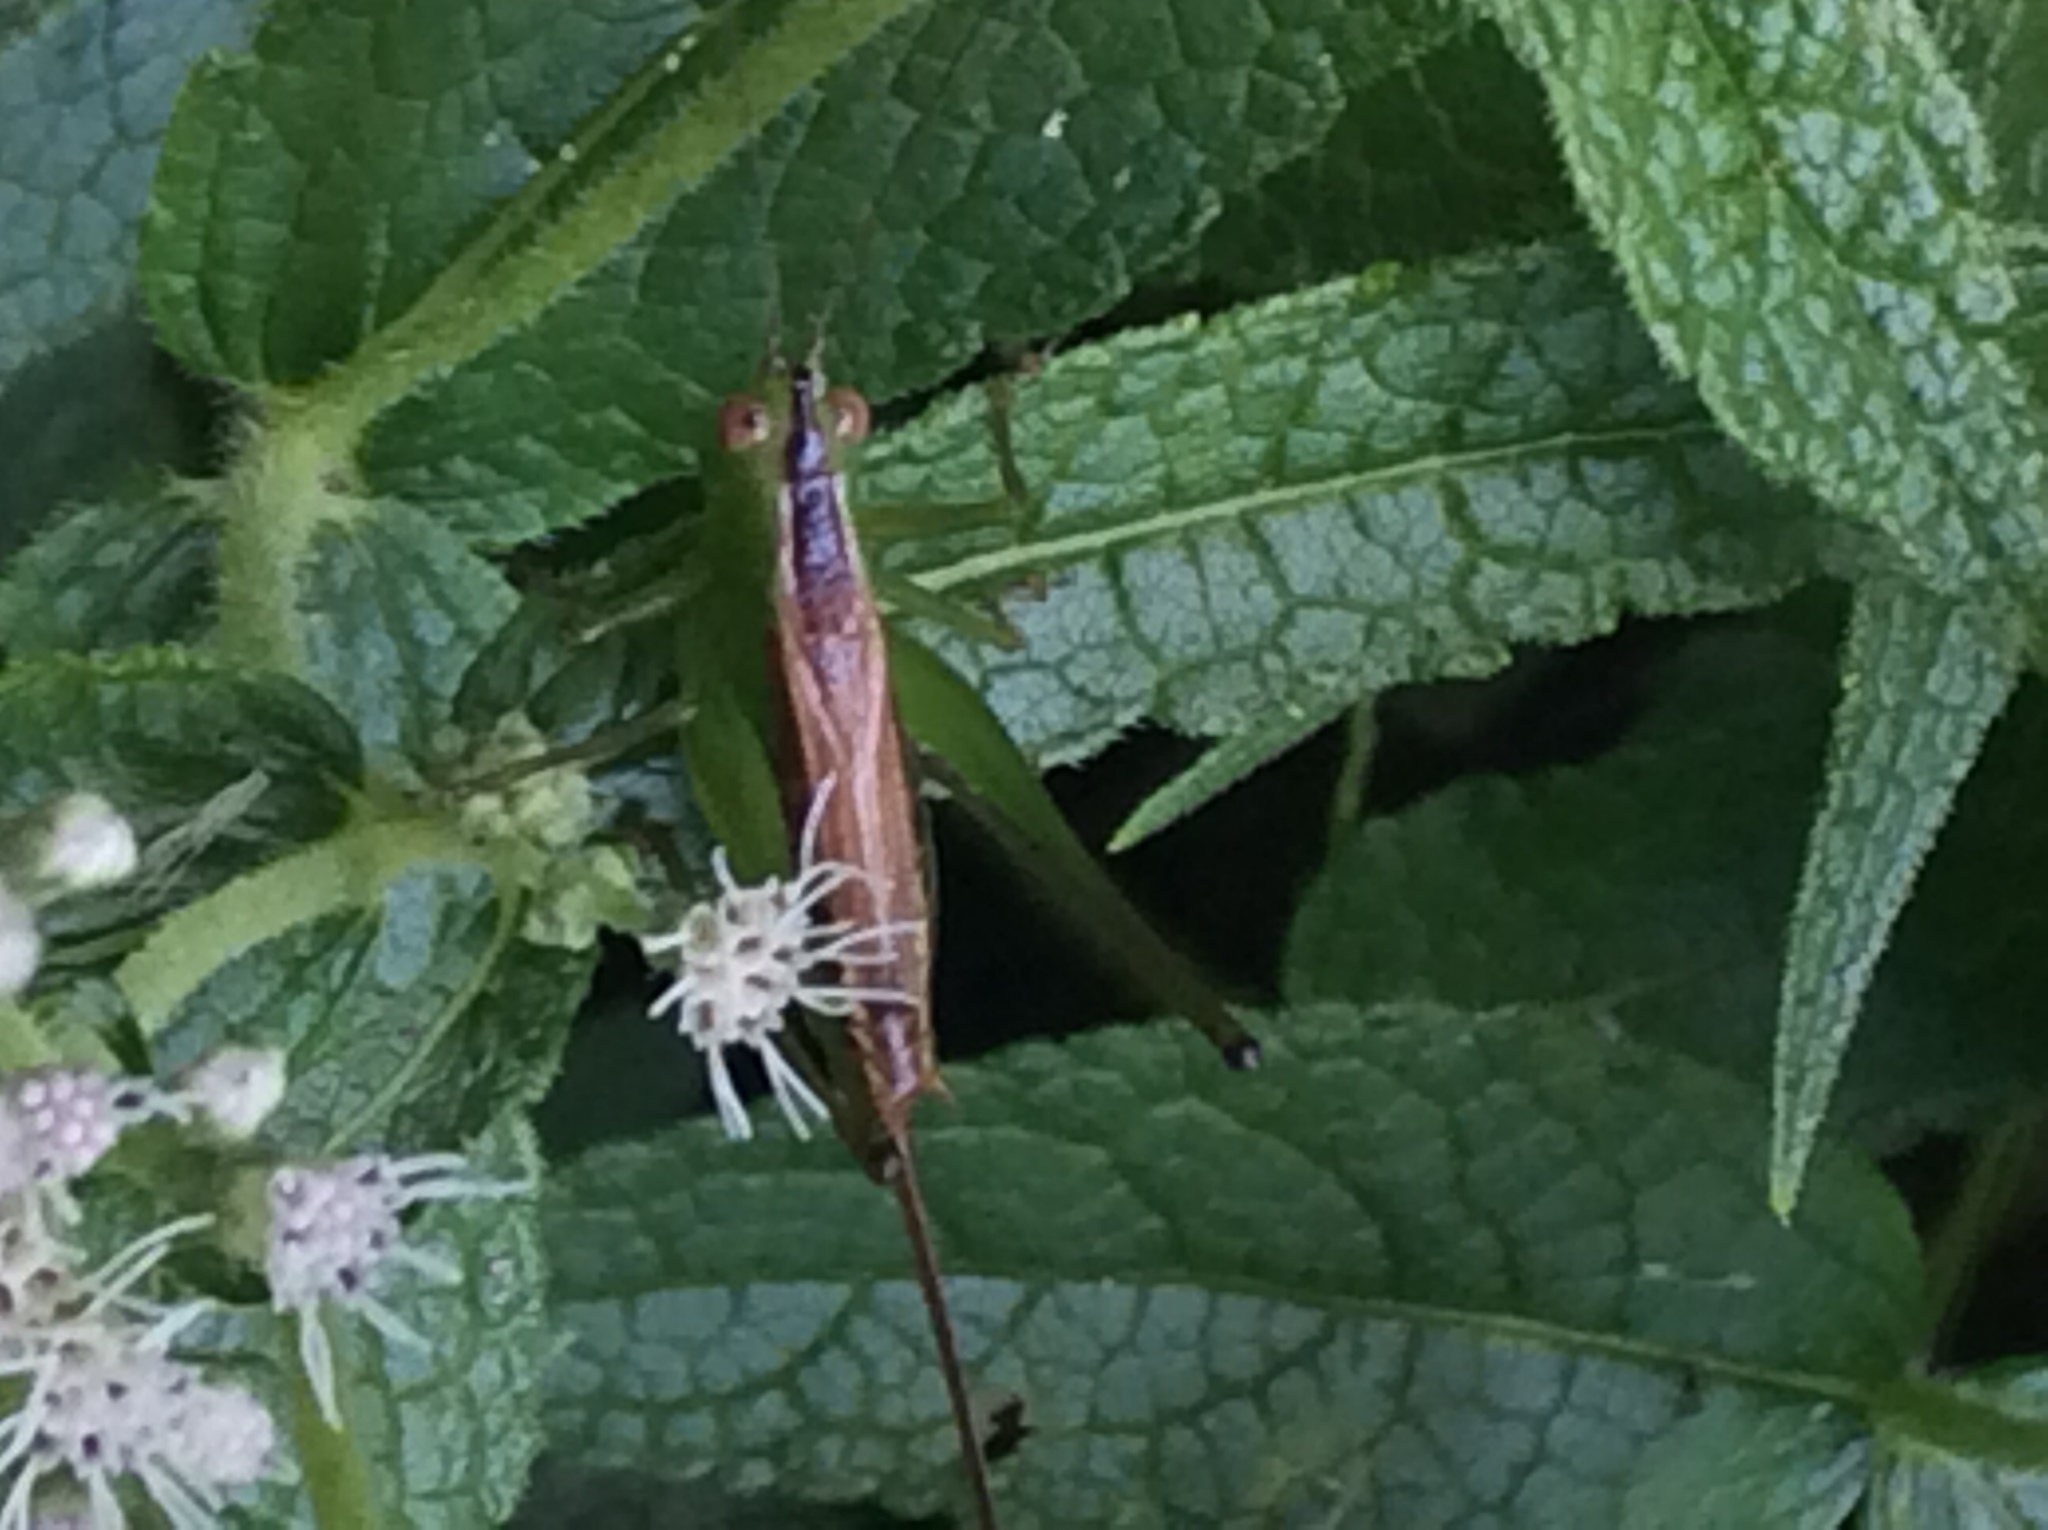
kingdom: Animalia
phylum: Arthropoda
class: Insecta
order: Orthoptera
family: Tettigoniidae
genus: Conocephalus
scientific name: Conocephalus brevipennis
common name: Short-winged meadow katydid
